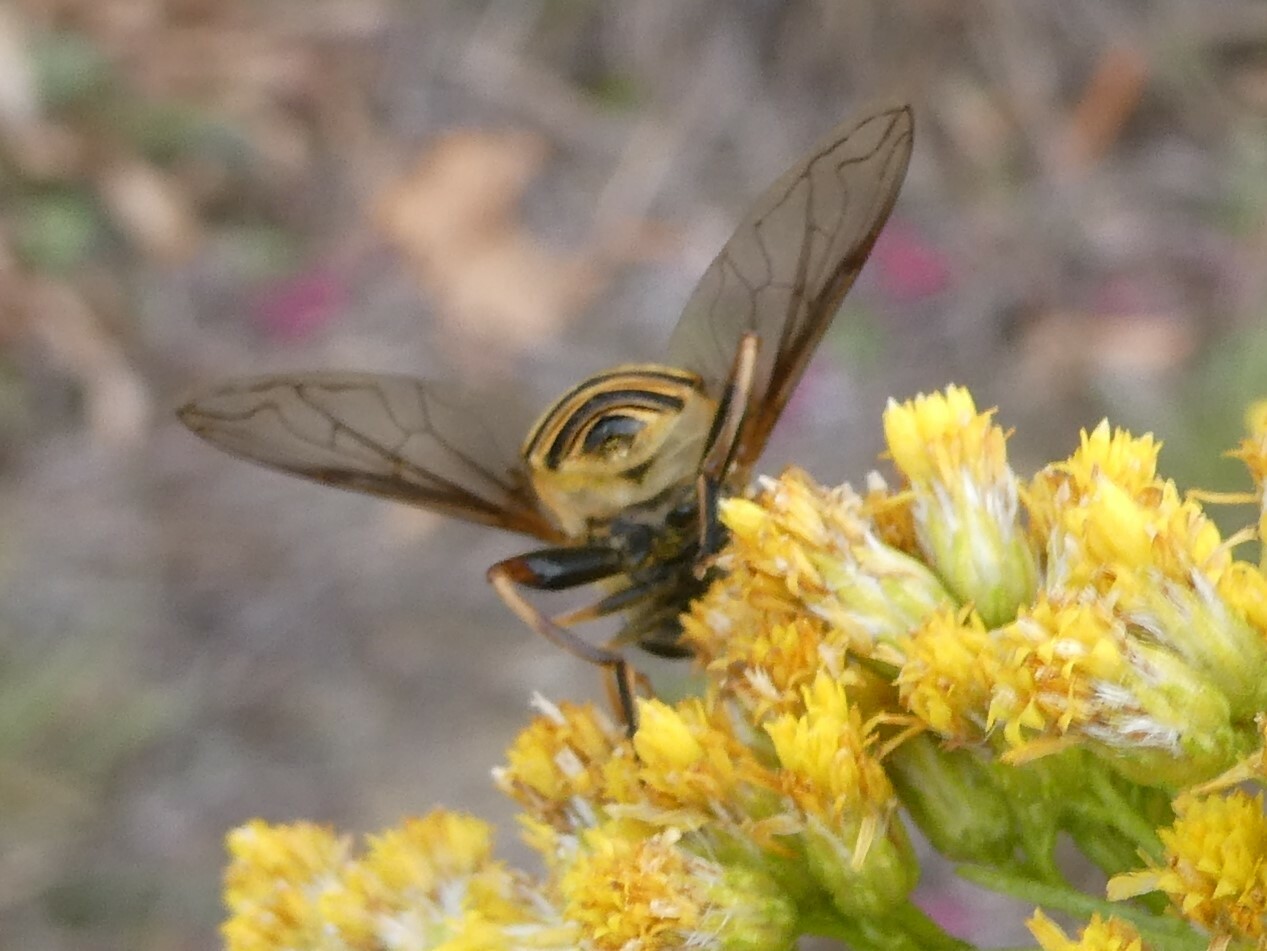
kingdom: Animalia
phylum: Arthropoda
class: Insecta
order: Diptera
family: Syrphidae
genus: Helophilus
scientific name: Helophilus fasciatus
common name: Narrow-headed marsh fly
